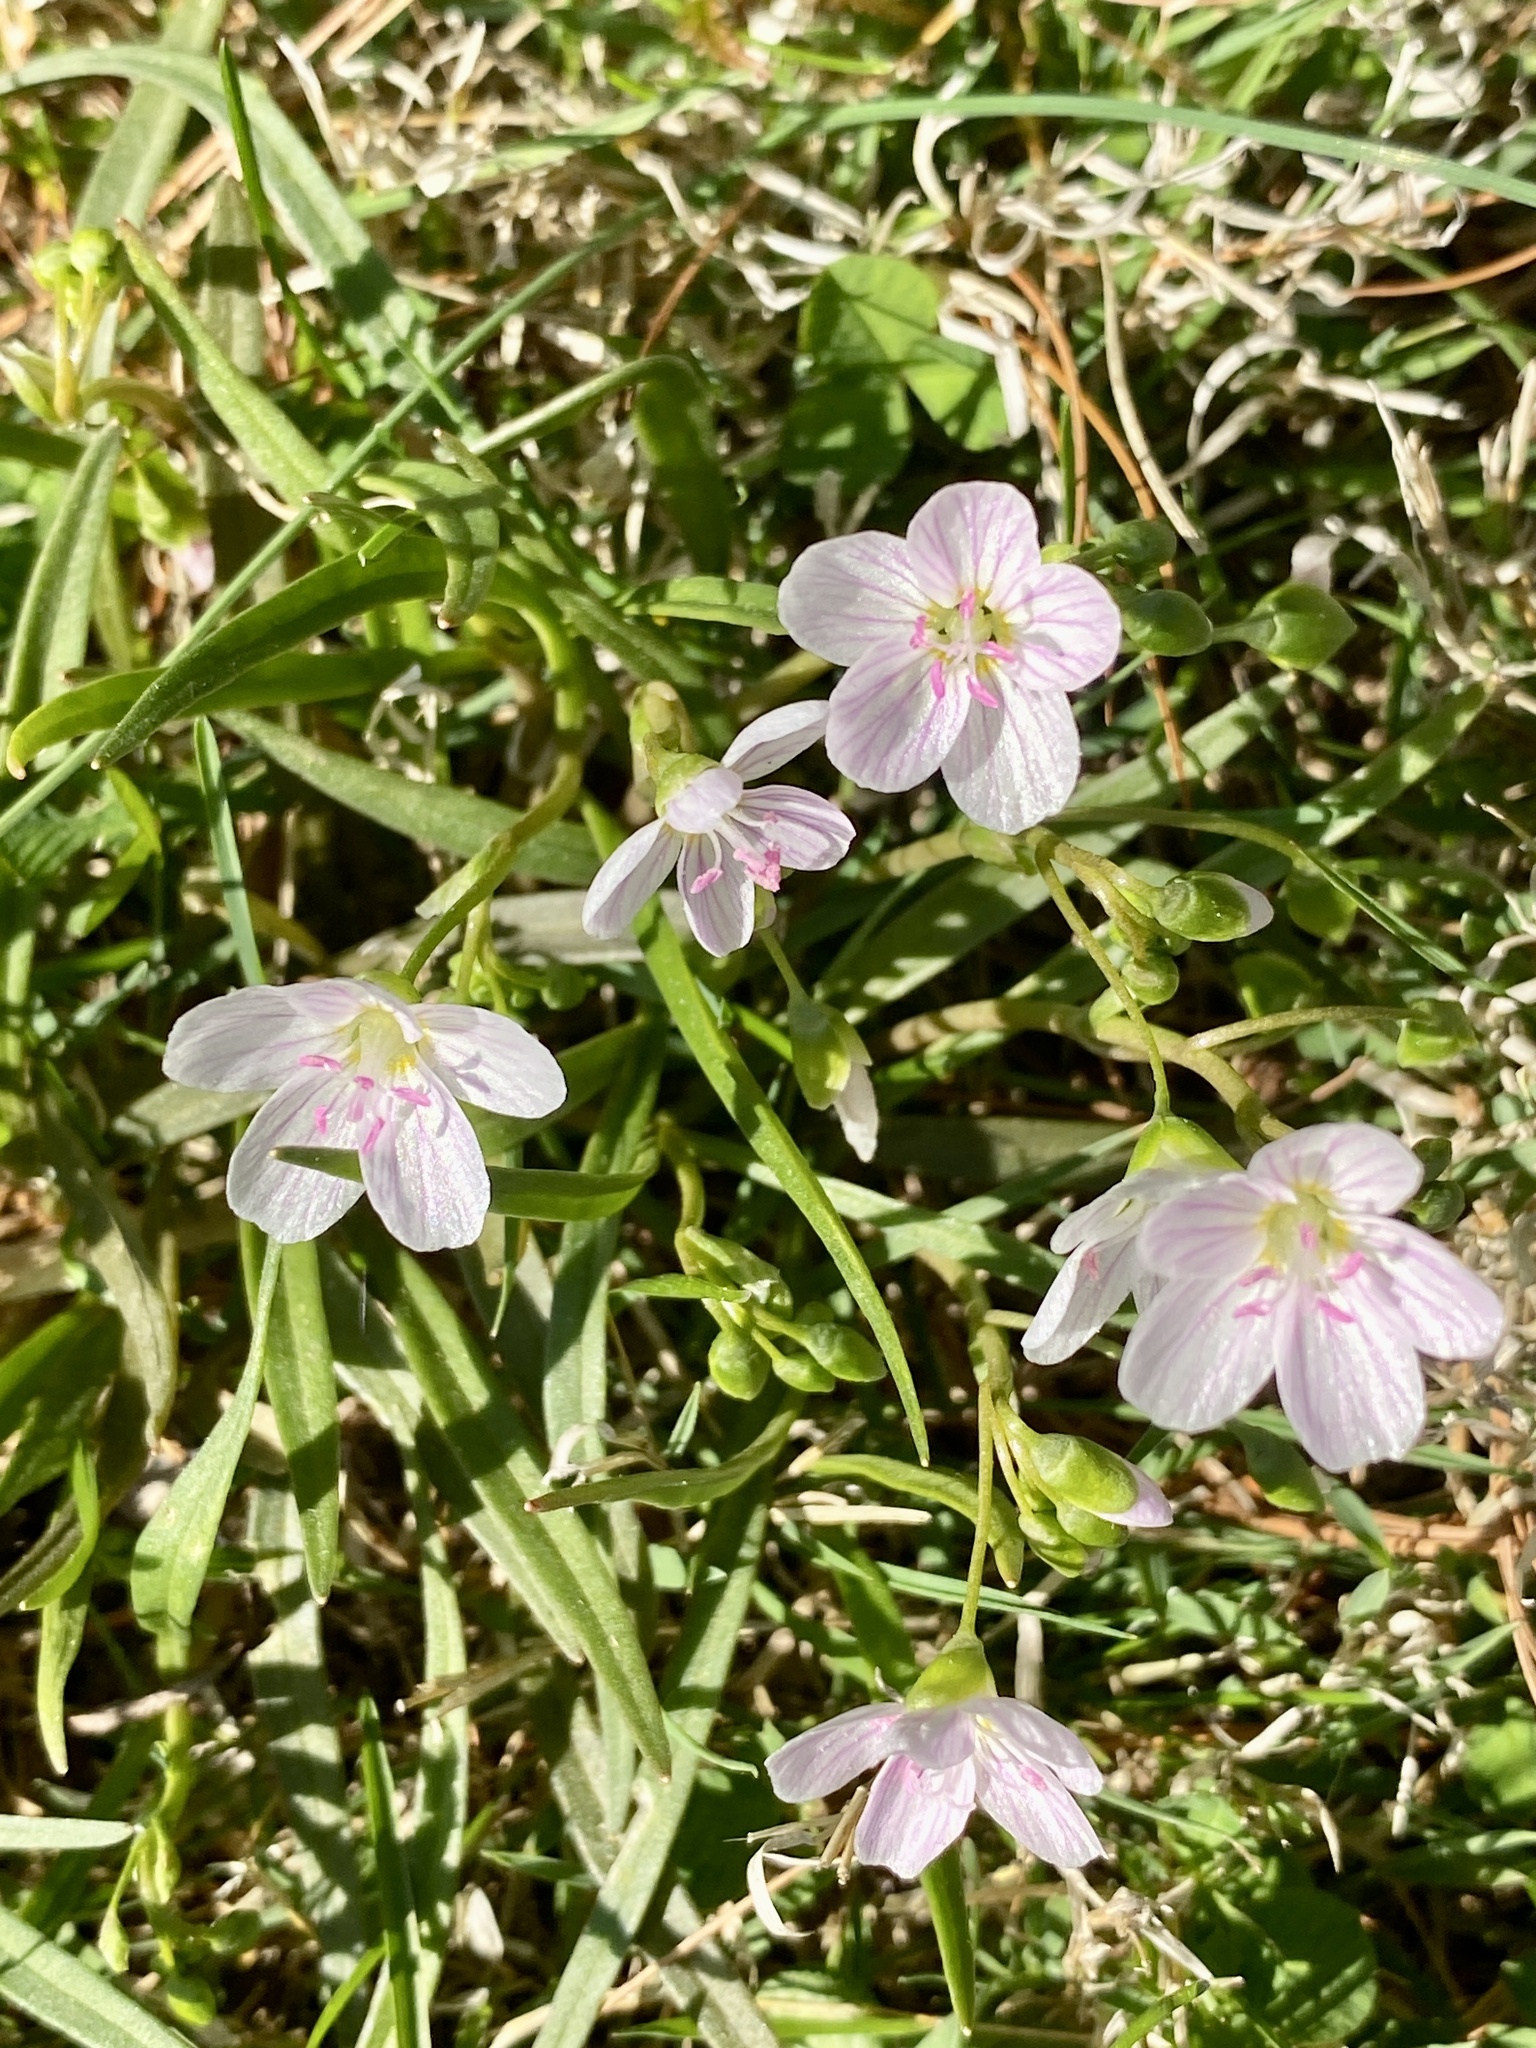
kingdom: Plantae
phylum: Tracheophyta
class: Magnoliopsida
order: Caryophyllales
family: Montiaceae
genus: Claytonia
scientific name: Claytonia virginica
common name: Virginia springbeauty
